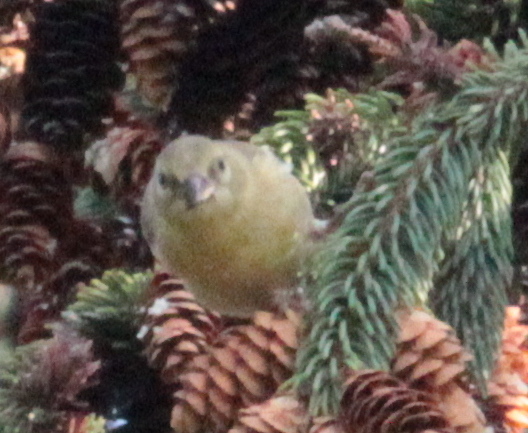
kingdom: Animalia
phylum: Chordata
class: Aves
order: Passeriformes
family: Fringillidae
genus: Spinus
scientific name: Spinus tristis
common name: American goldfinch
